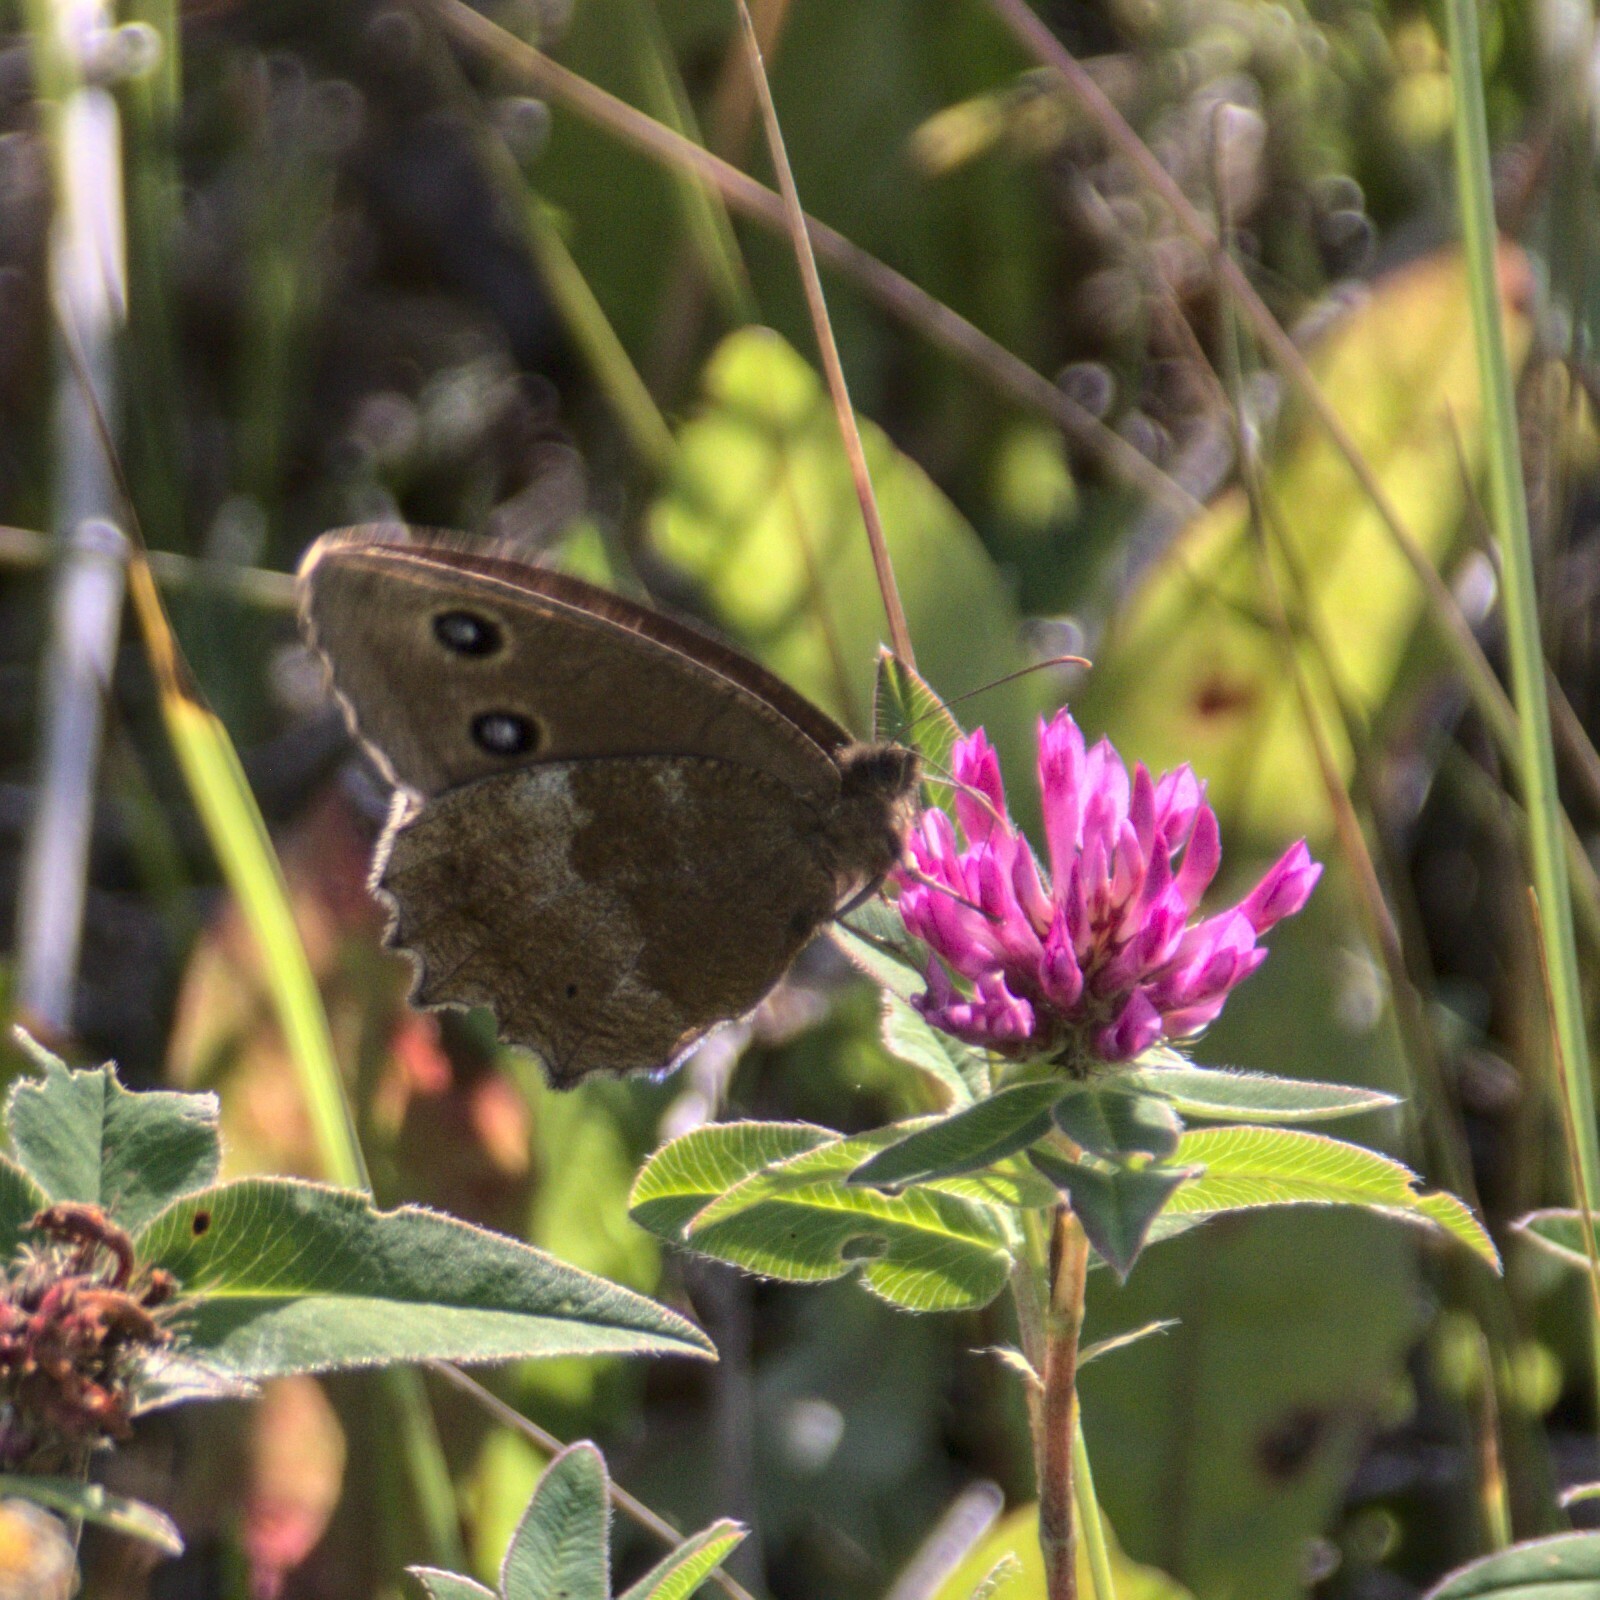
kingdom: Animalia
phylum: Arthropoda
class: Insecta
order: Lepidoptera
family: Nymphalidae
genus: Minois
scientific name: Minois dryas
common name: Dryad
